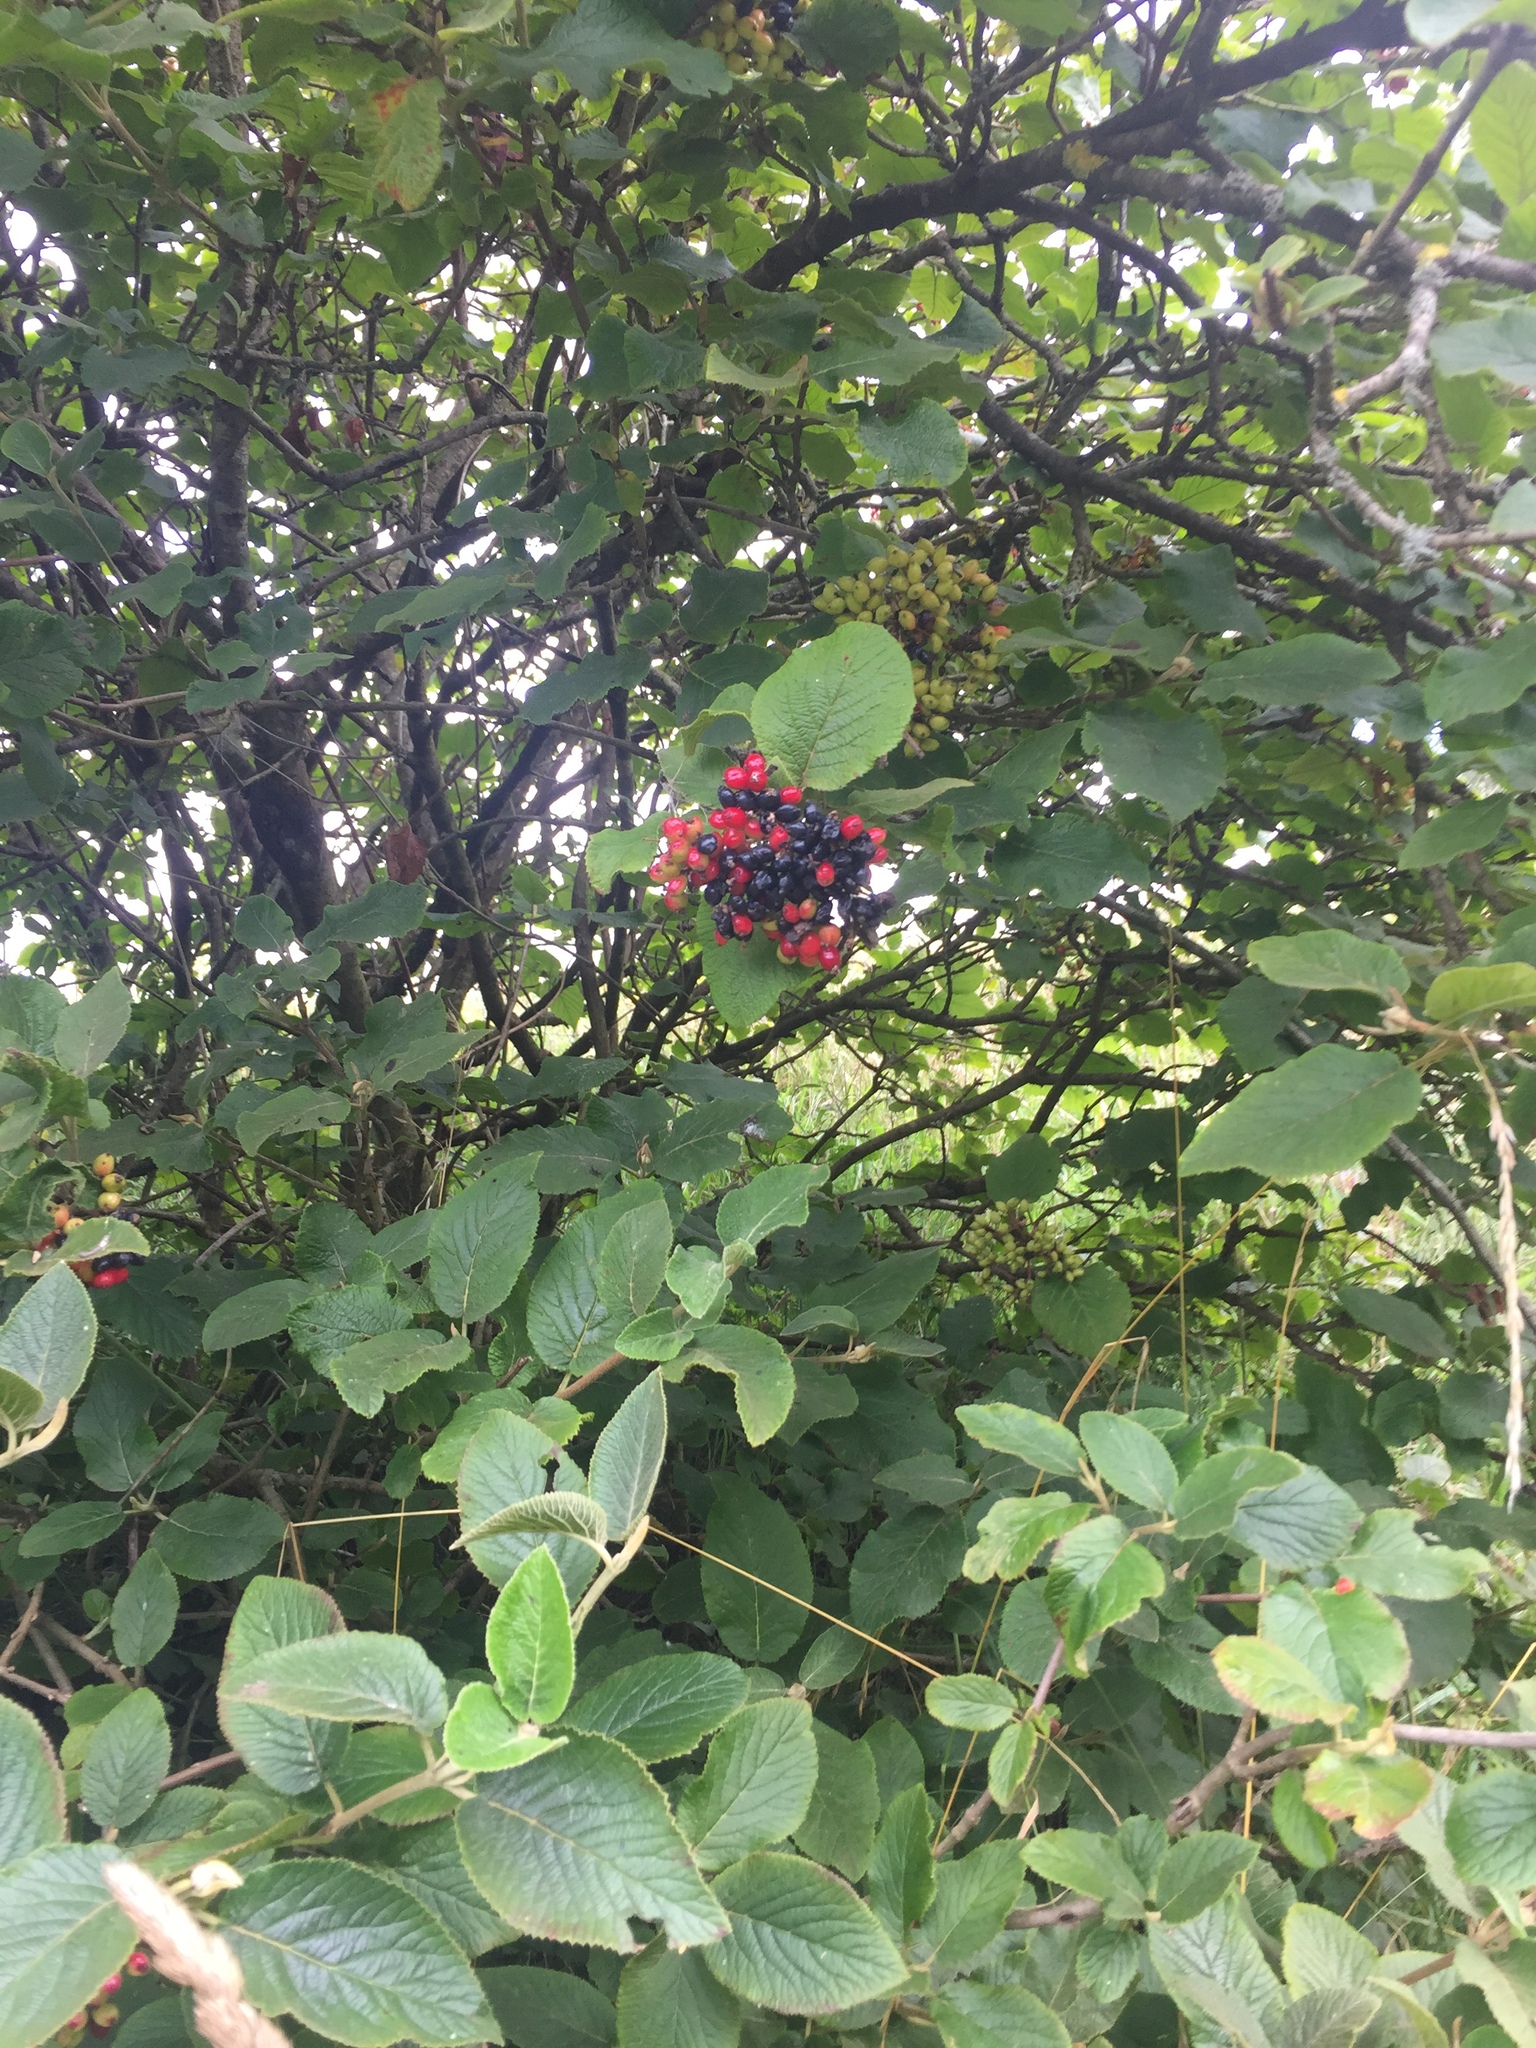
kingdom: Plantae
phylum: Tracheophyta
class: Magnoliopsida
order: Dipsacales
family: Viburnaceae
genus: Viburnum
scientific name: Viburnum lantana
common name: Wayfaring tree
